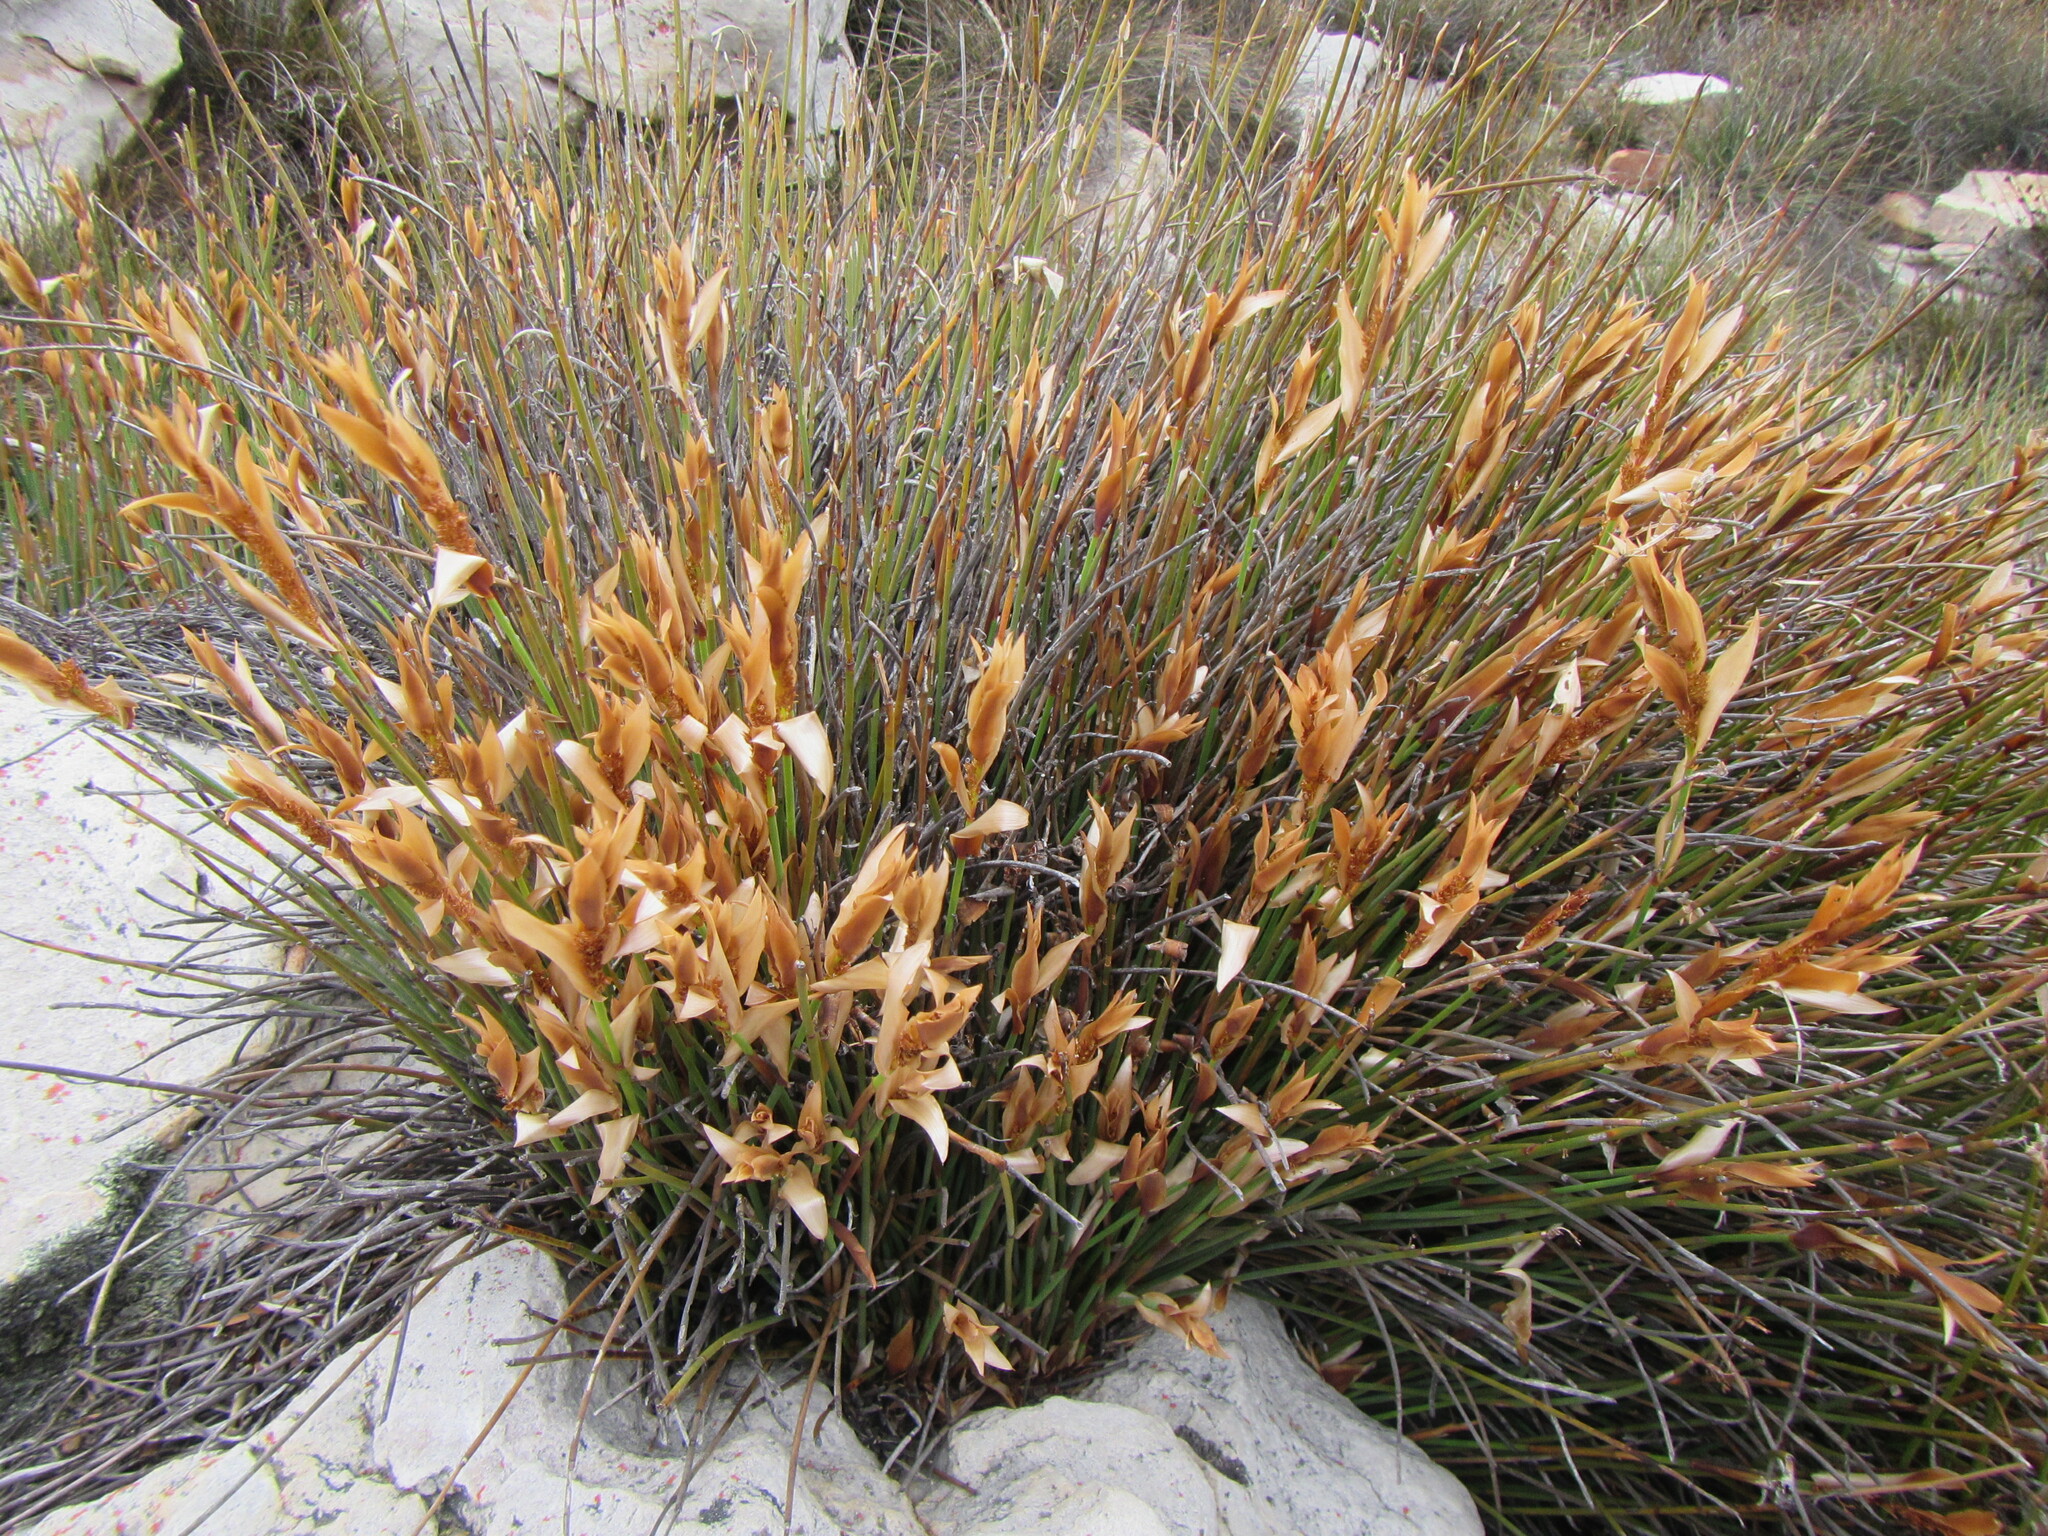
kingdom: Plantae
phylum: Tracheophyta
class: Liliopsida
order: Poales
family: Restionaceae
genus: Elegia
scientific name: Elegia esterhuyseniae
